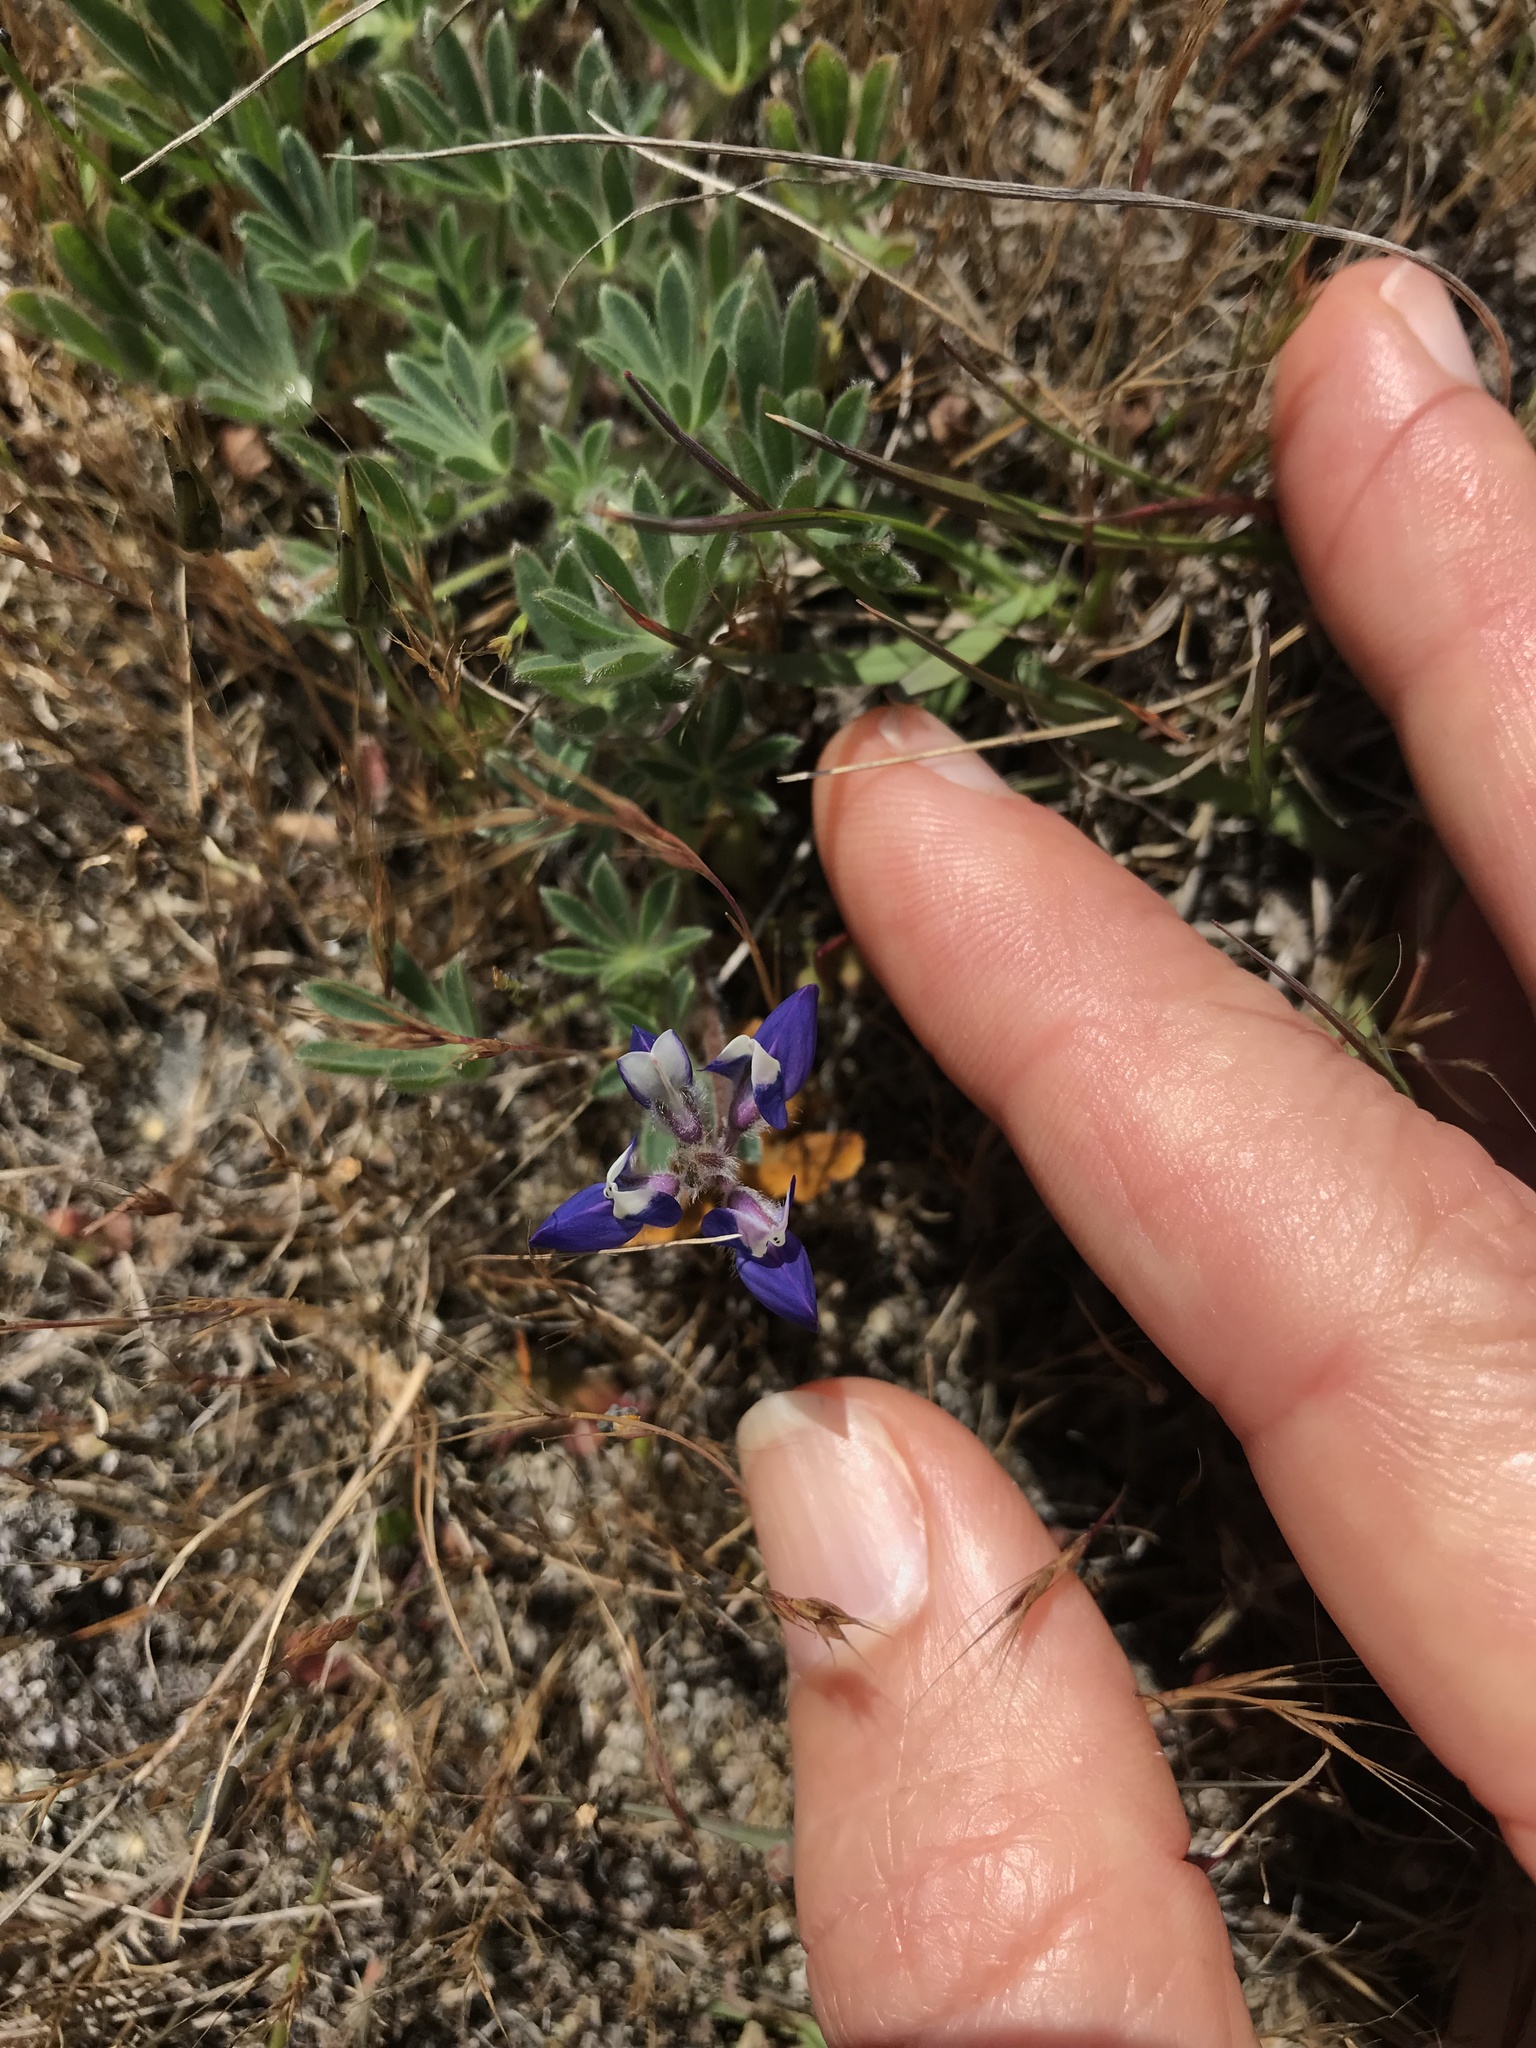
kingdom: Plantae
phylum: Tracheophyta
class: Magnoliopsida
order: Fabales
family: Fabaceae
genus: Lupinus
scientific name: Lupinus bicolor
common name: Miniature lupine
